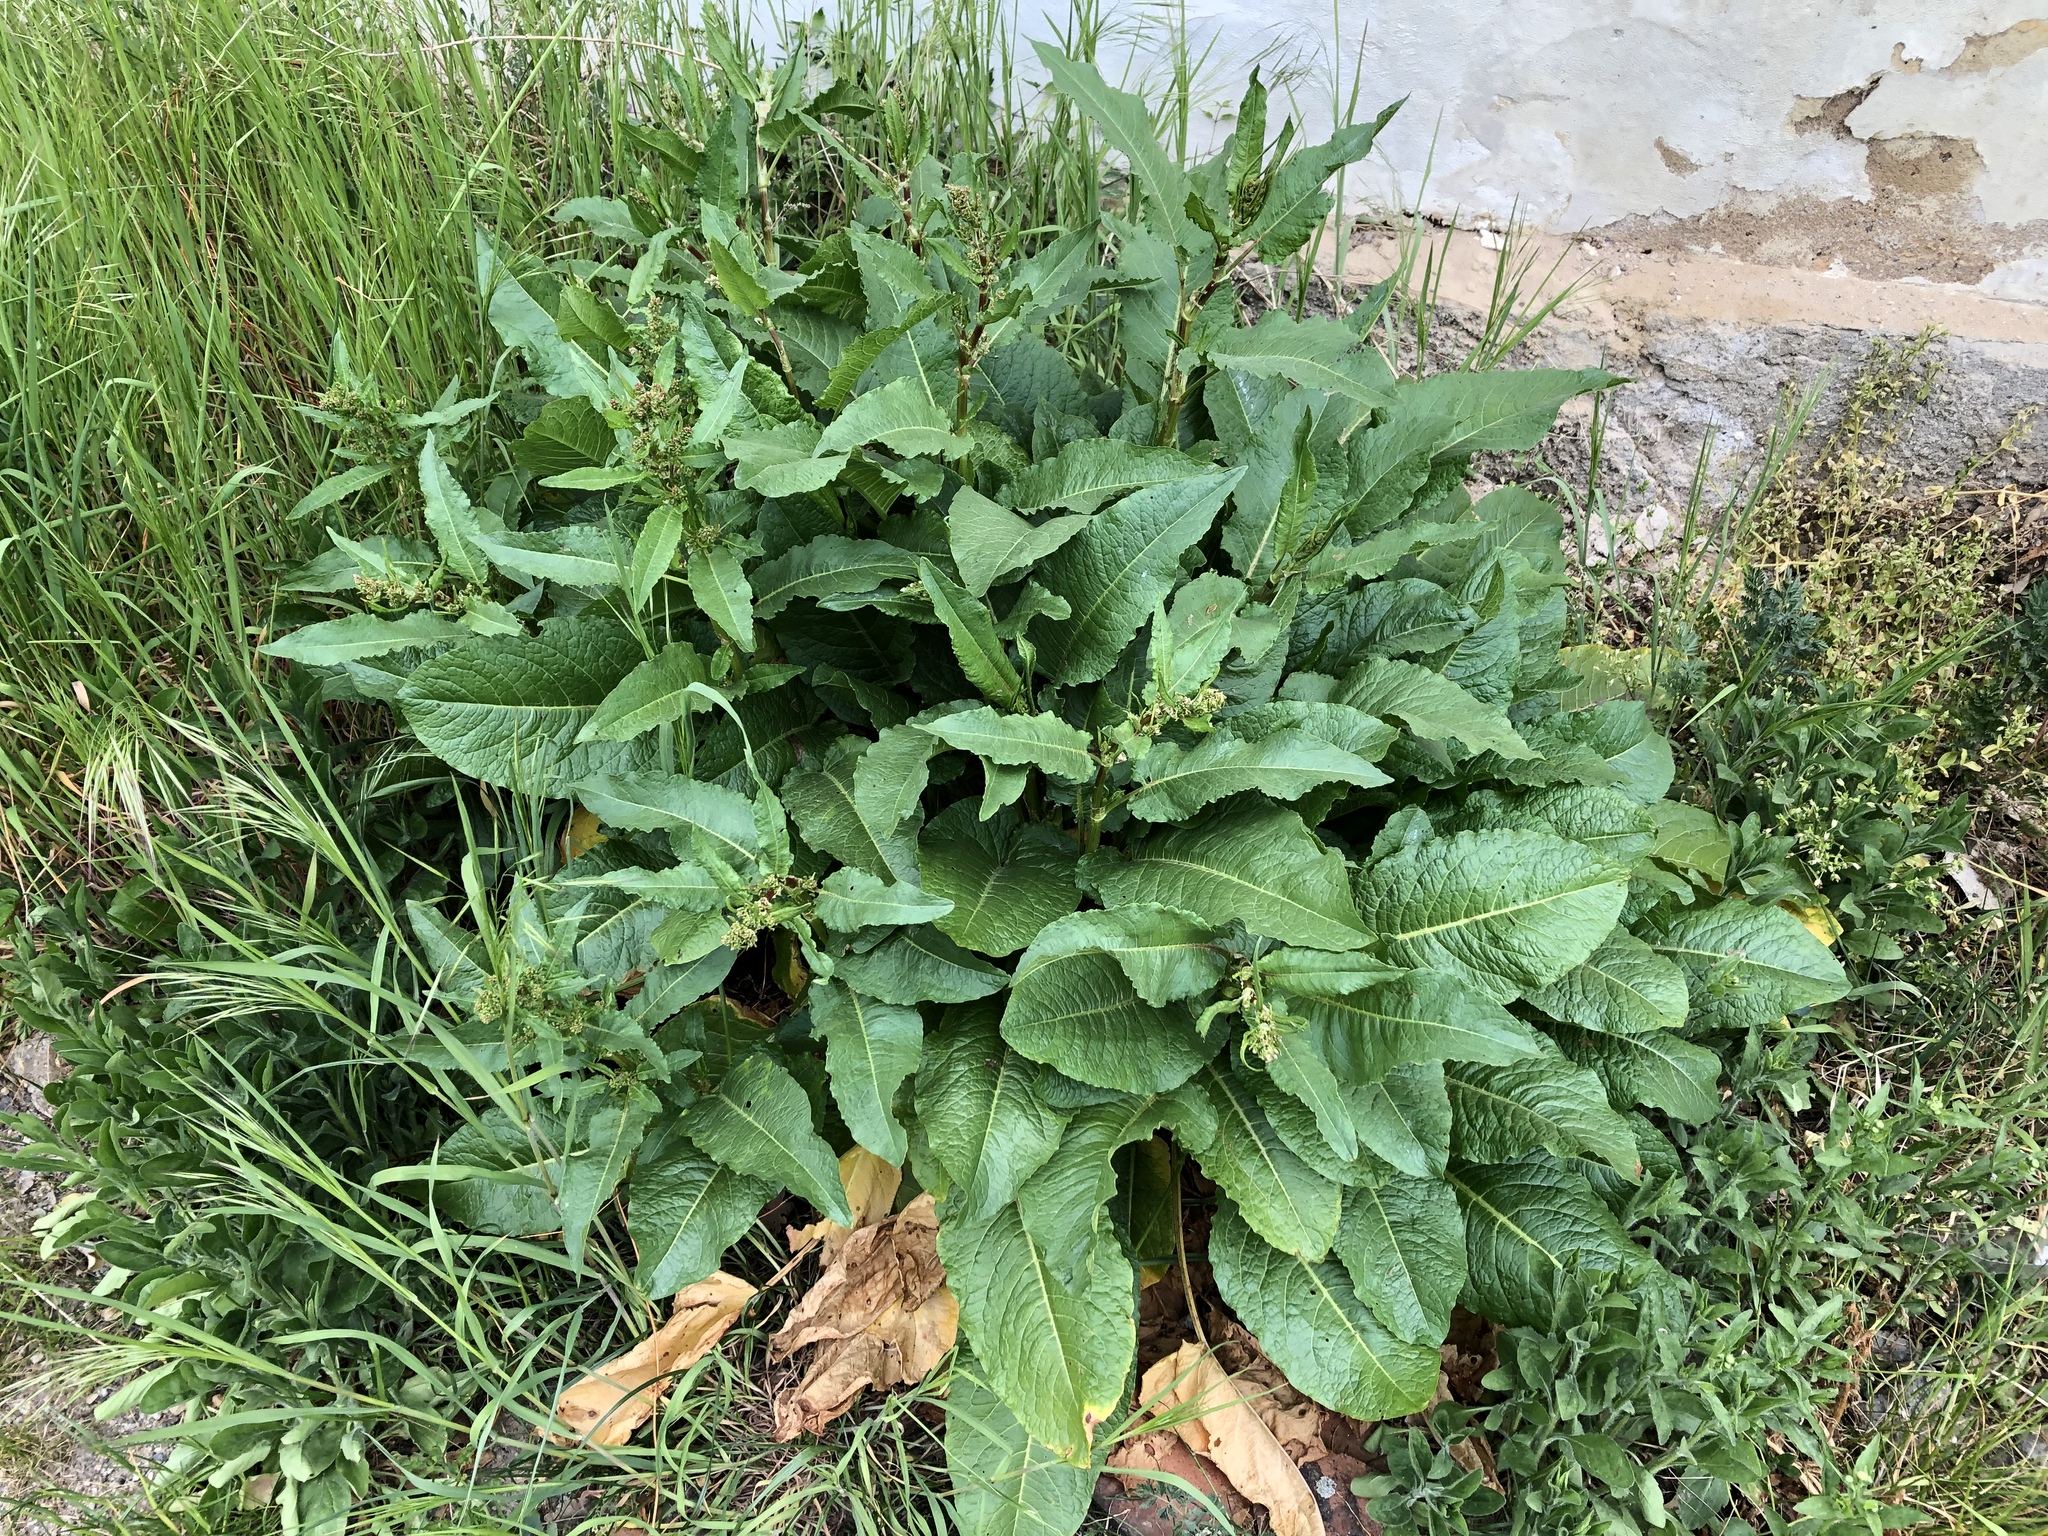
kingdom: Plantae
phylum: Tracheophyta
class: Magnoliopsida
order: Caryophyllales
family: Polygonaceae
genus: Rumex
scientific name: Rumex obtusifolius
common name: Bitter dock
